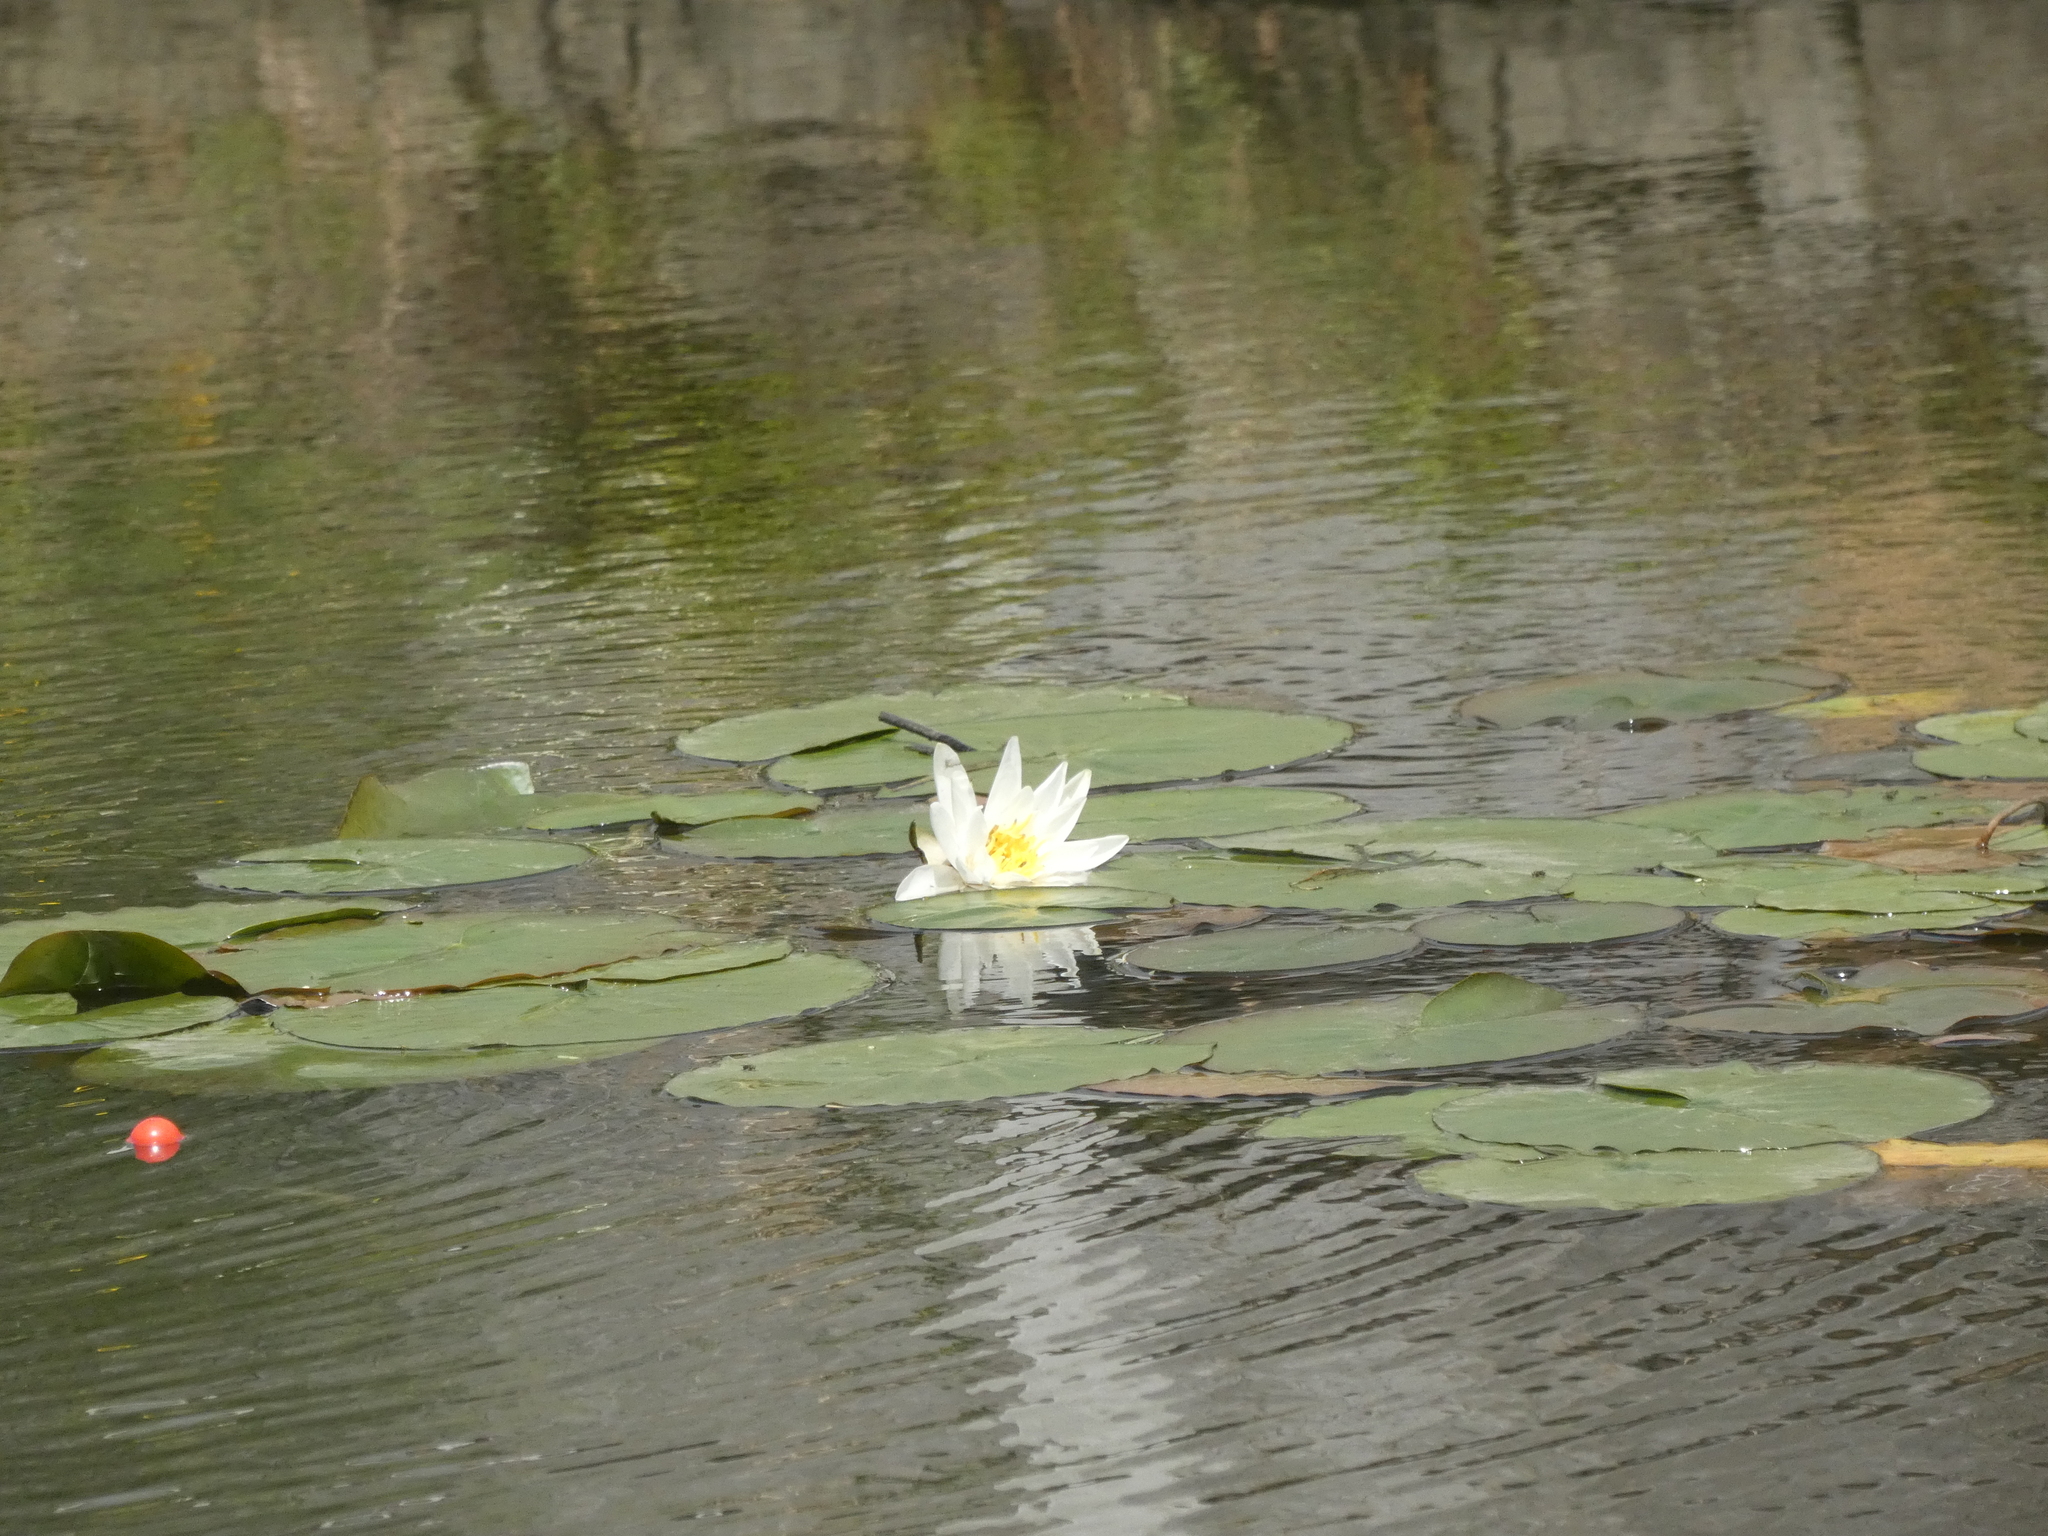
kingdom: Plantae
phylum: Tracheophyta
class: Magnoliopsida
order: Nymphaeales
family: Nymphaeaceae
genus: Nymphaea
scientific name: Nymphaea alba
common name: White water-lily
